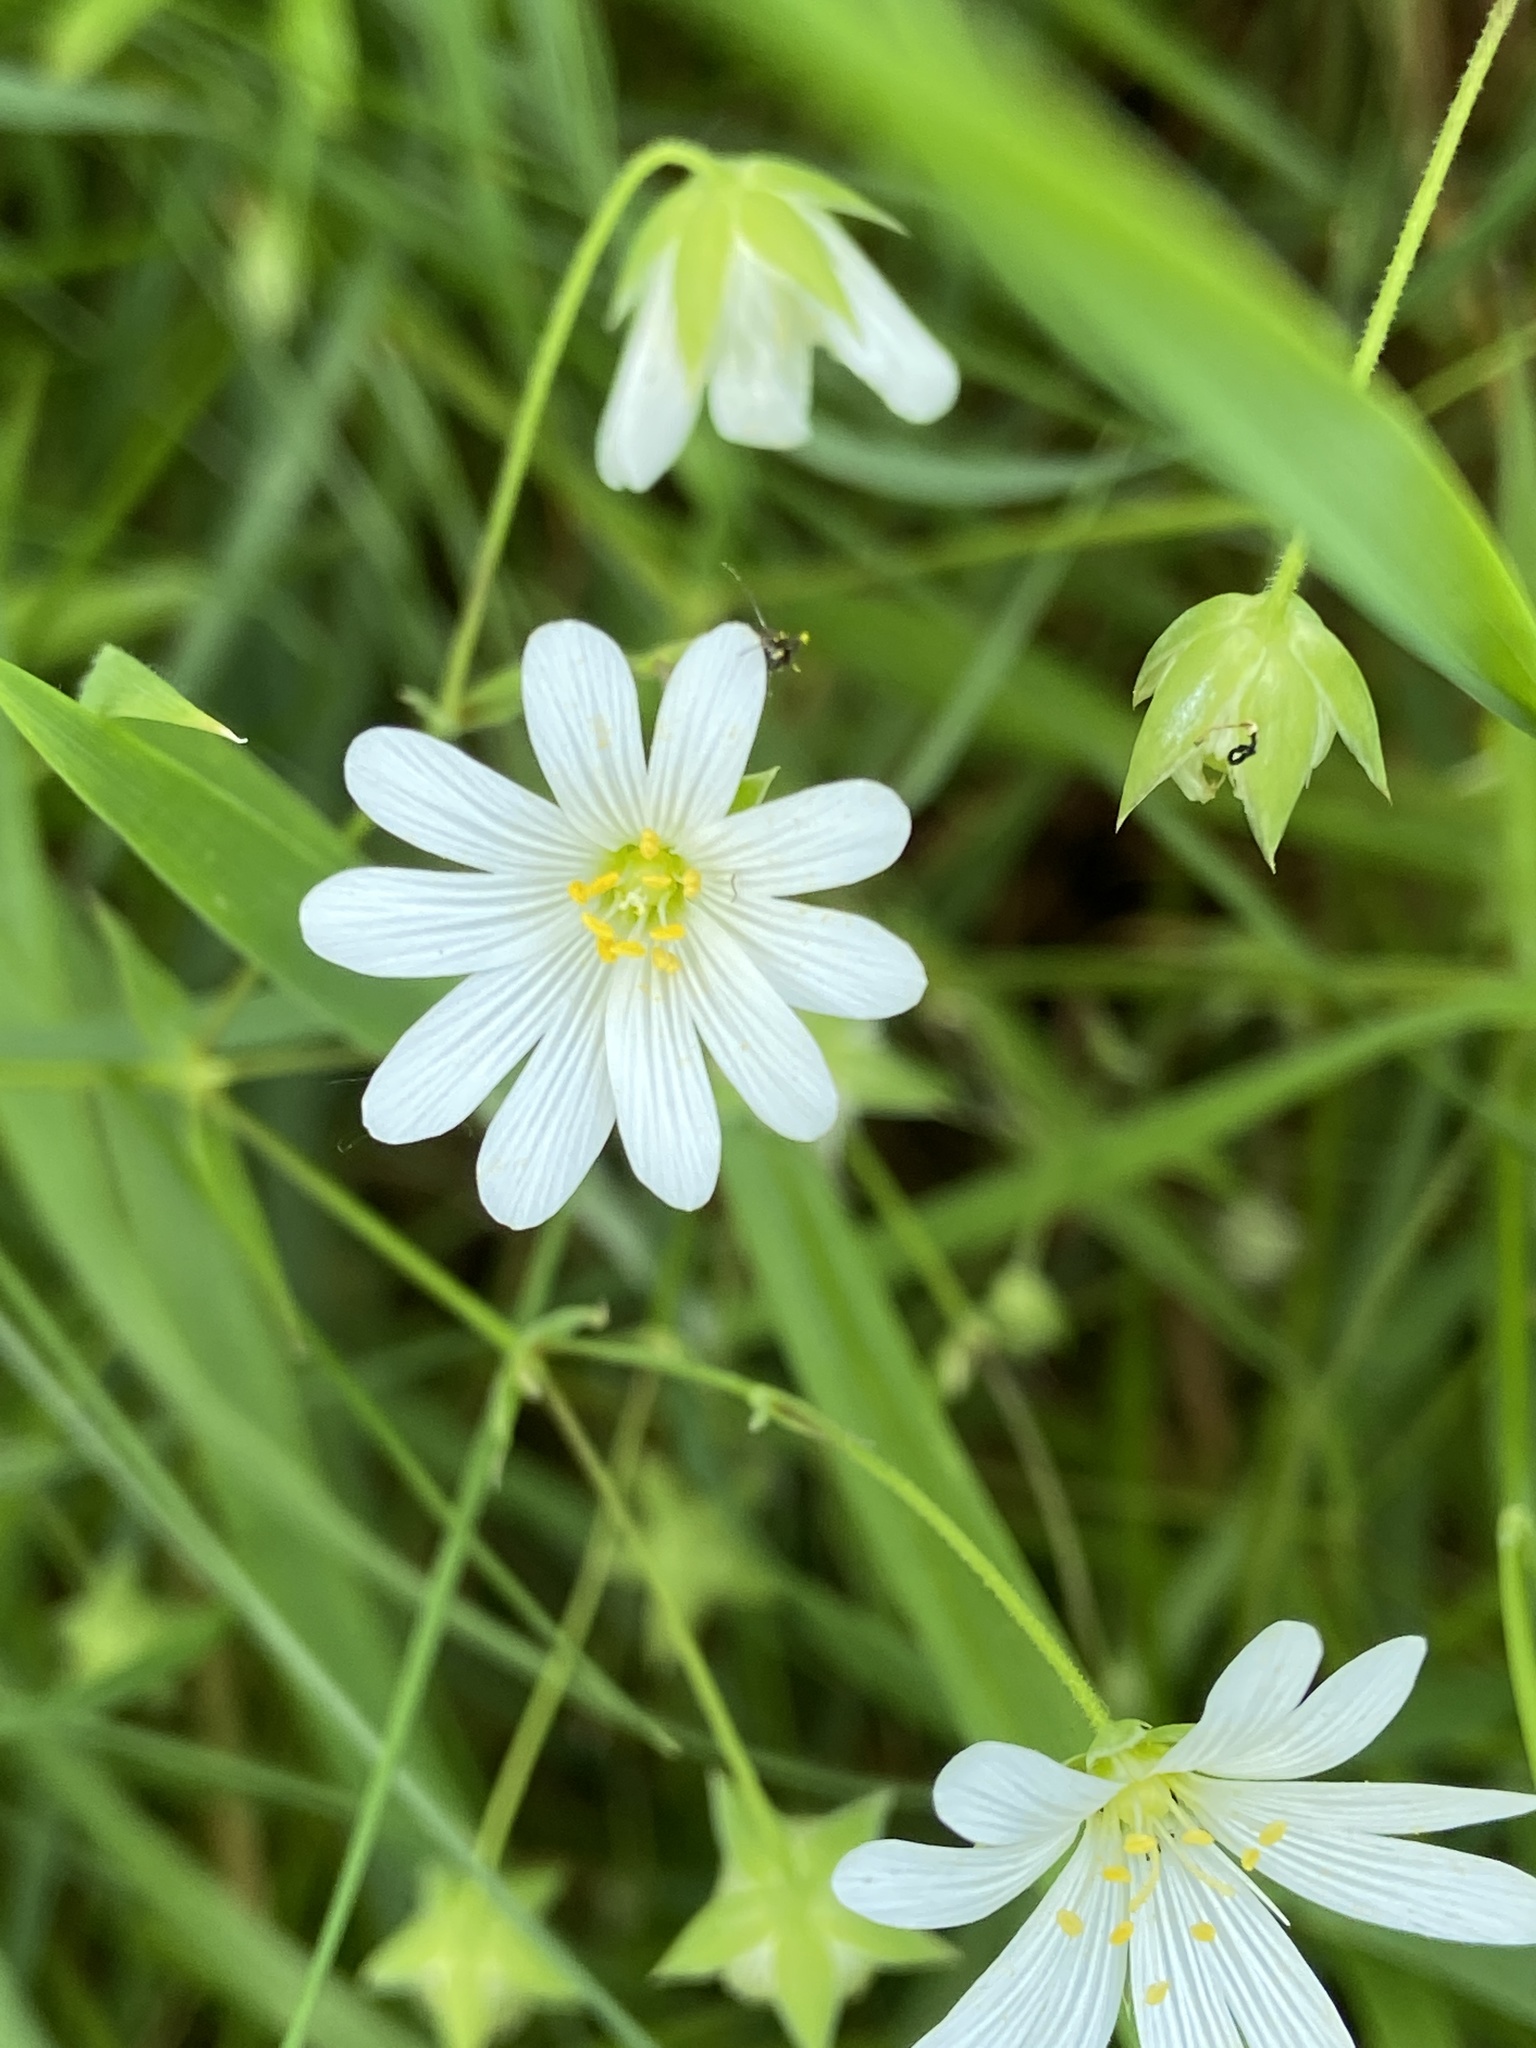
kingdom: Plantae
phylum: Tracheophyta
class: Magnoliopsida
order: Caryophyllales
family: Caryophyllaceae
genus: Rabelera
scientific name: Rabelera holostea
